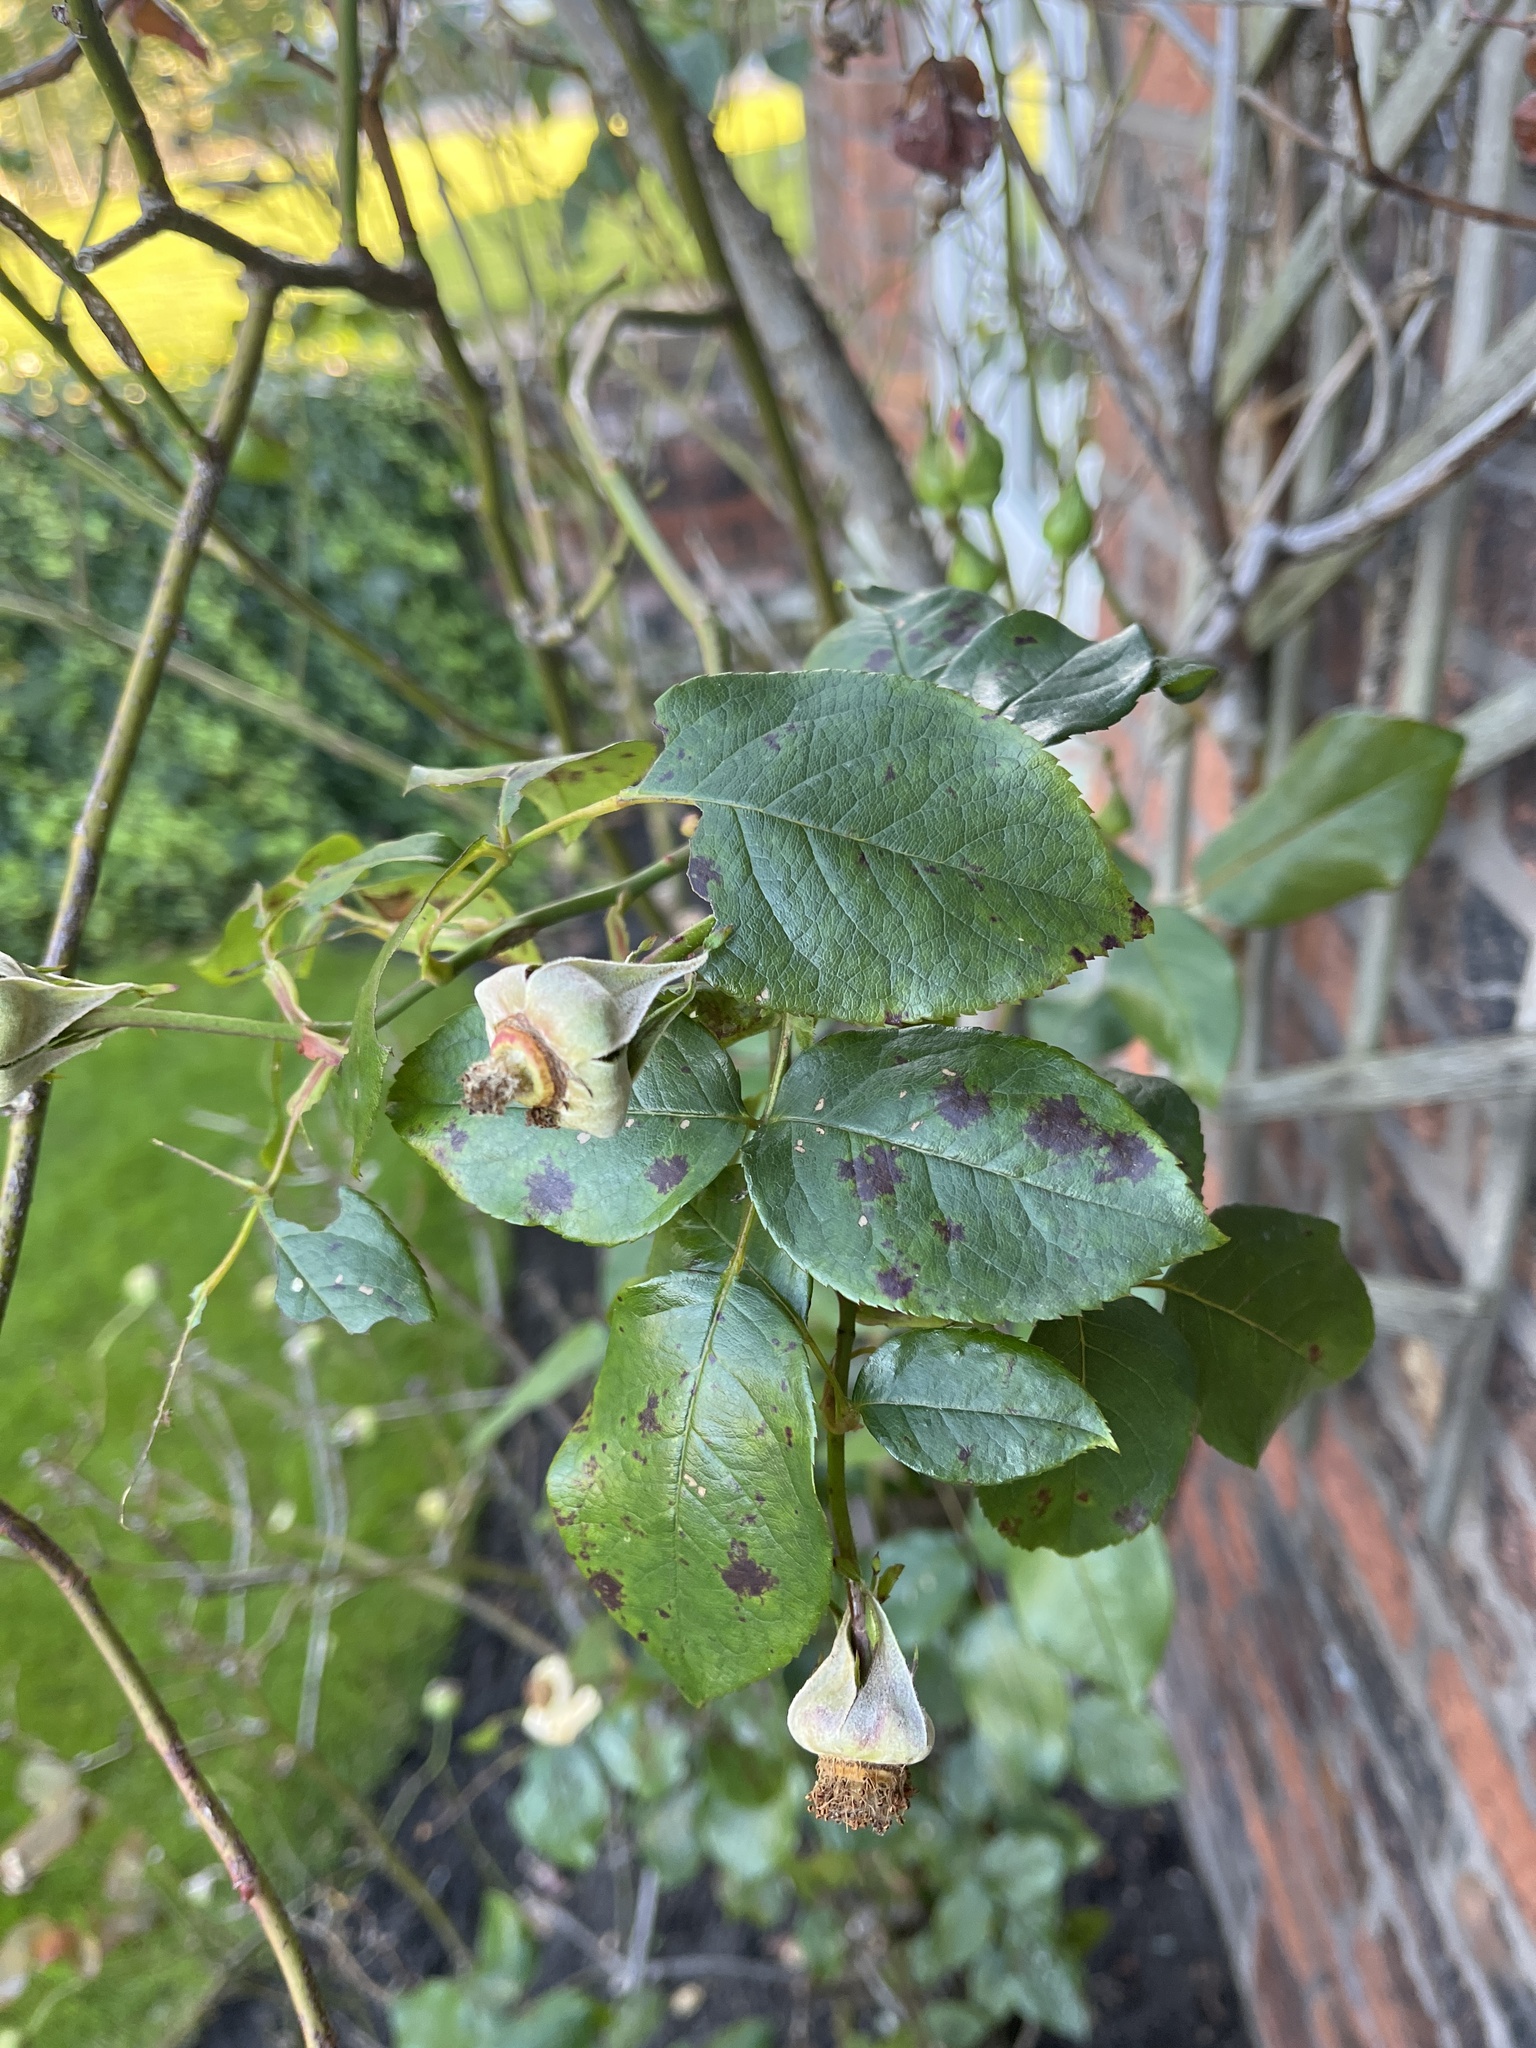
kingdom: Fungi
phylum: Ascomycota
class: Leotiomycetes
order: Helotiales
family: Drepanopezizaceae
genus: Diplocarpon
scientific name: Diplocarpon rosae
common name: Rose black-spot
